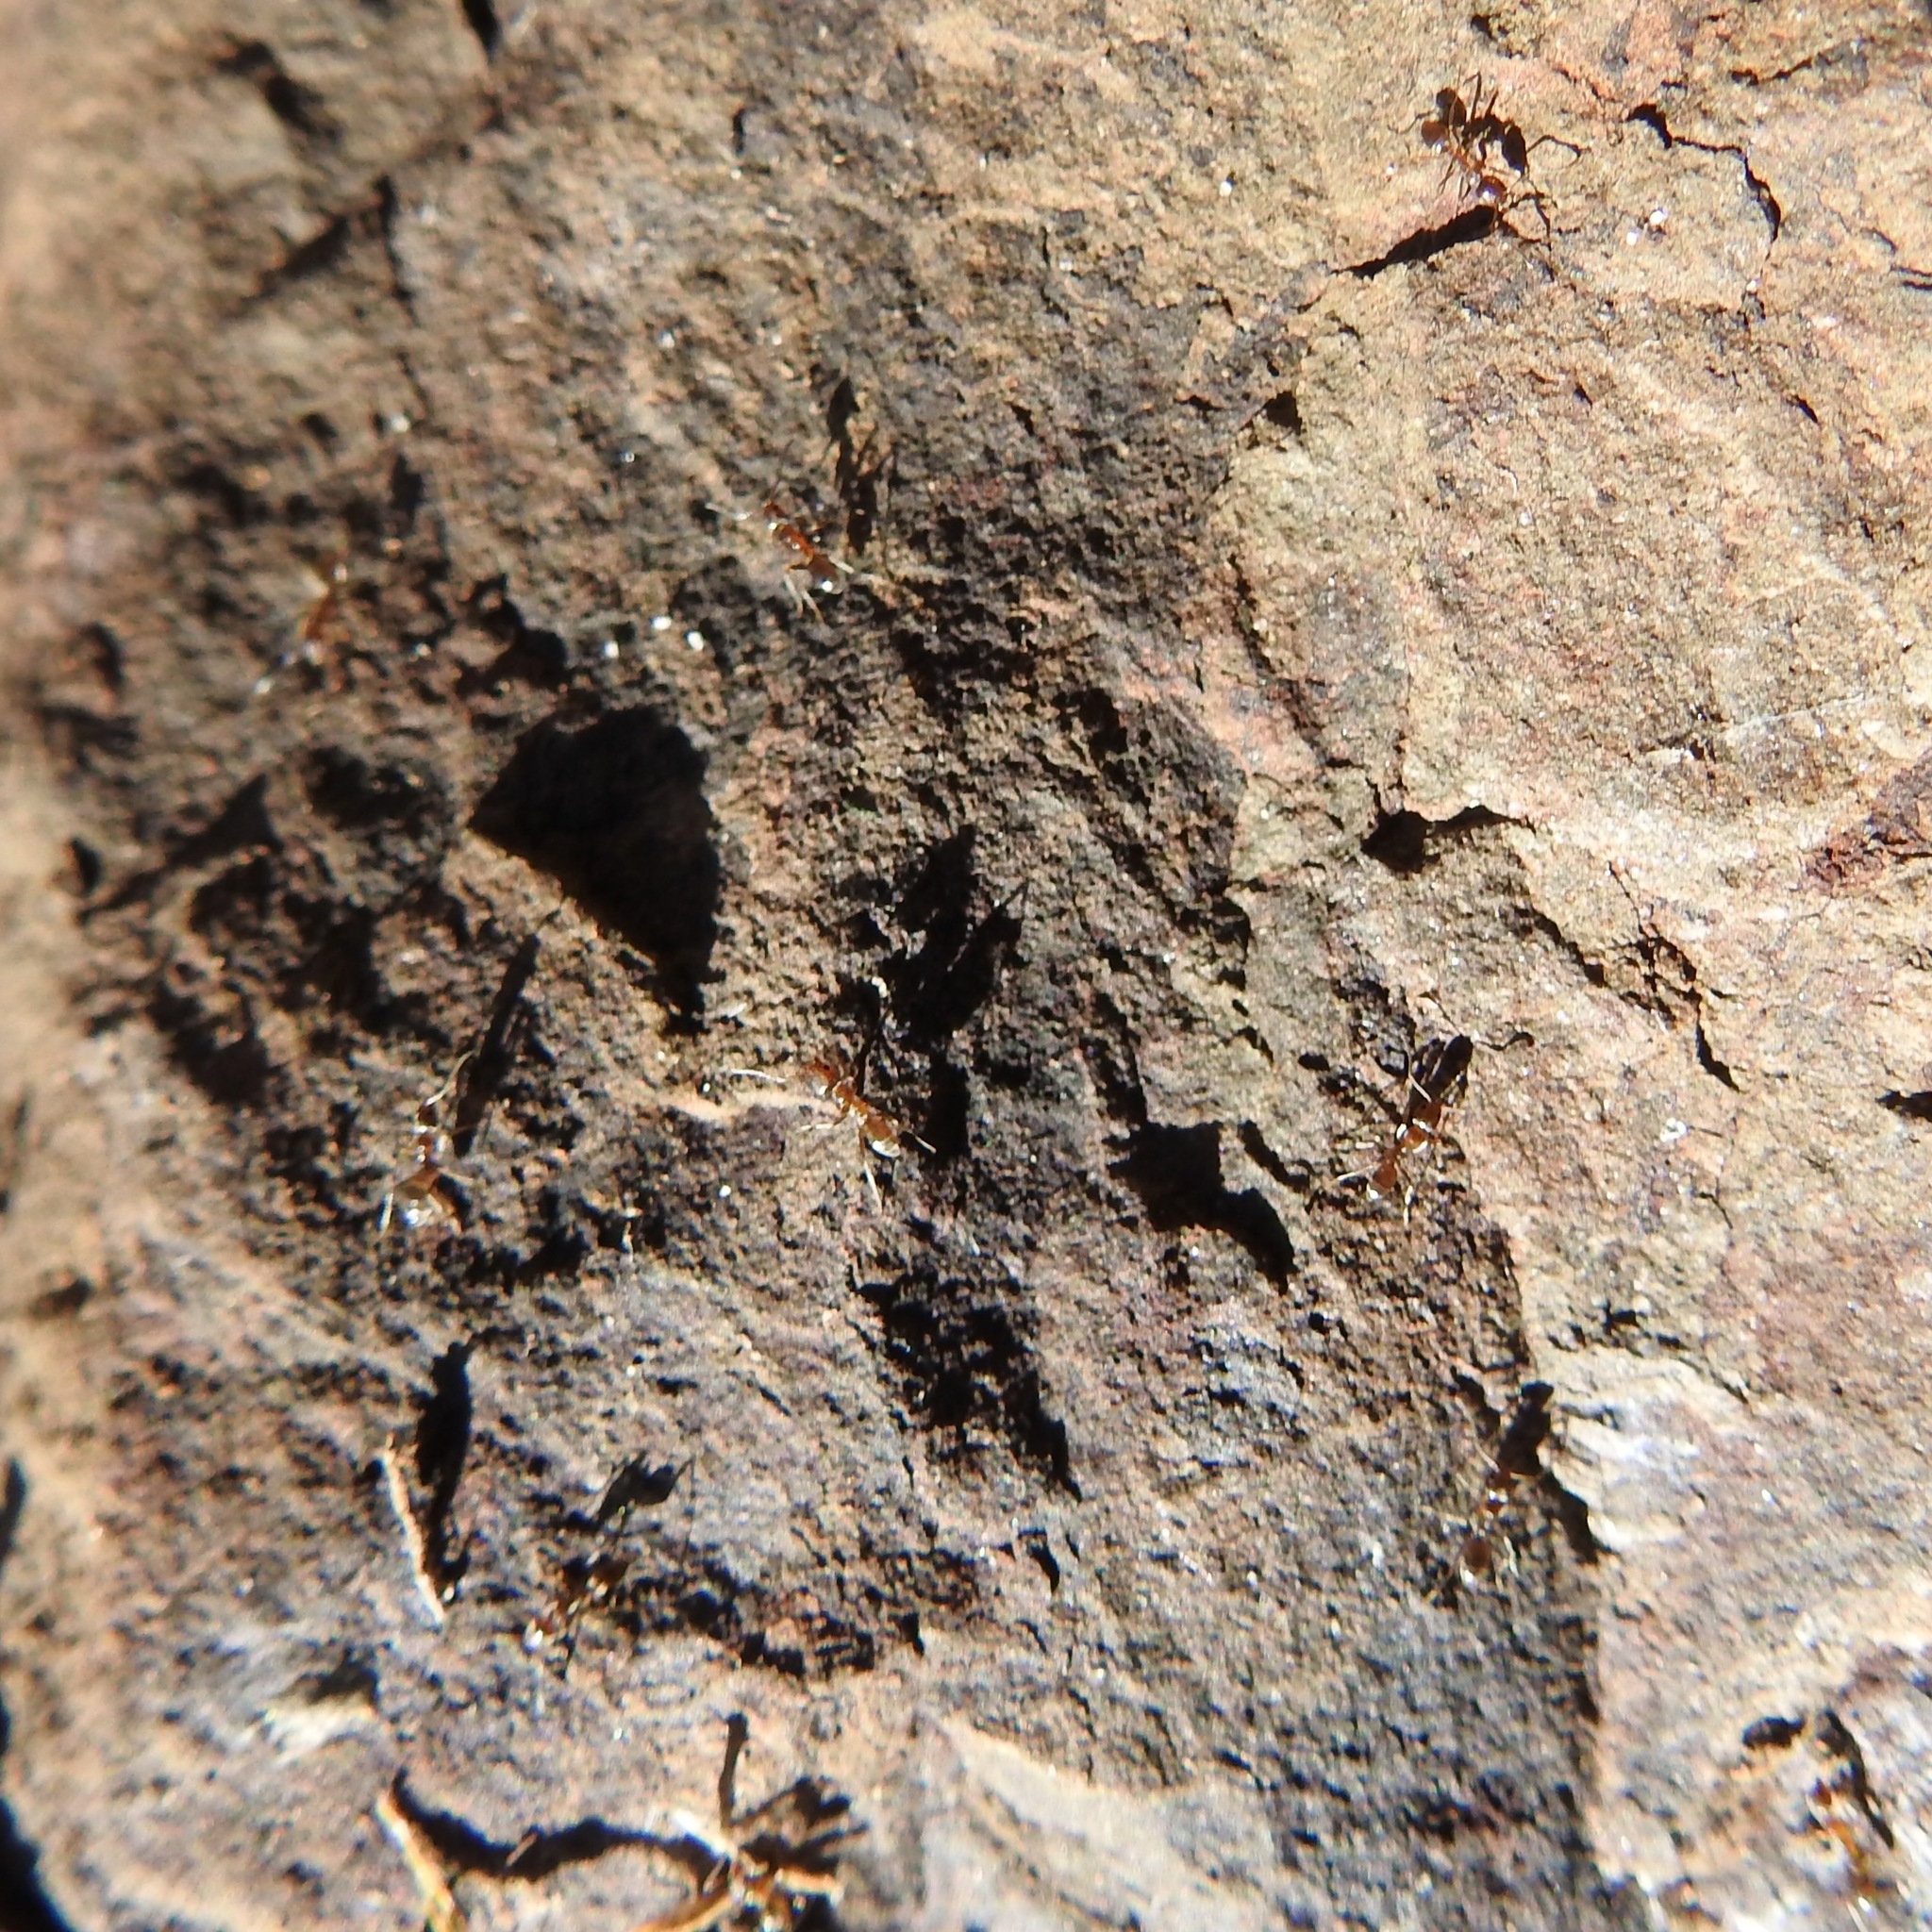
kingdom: Animalia
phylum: Arthropoda
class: Insecta
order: Hymenoptera
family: Formicidae
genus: Linepithema
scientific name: Linepithema humile
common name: Argentine ant
